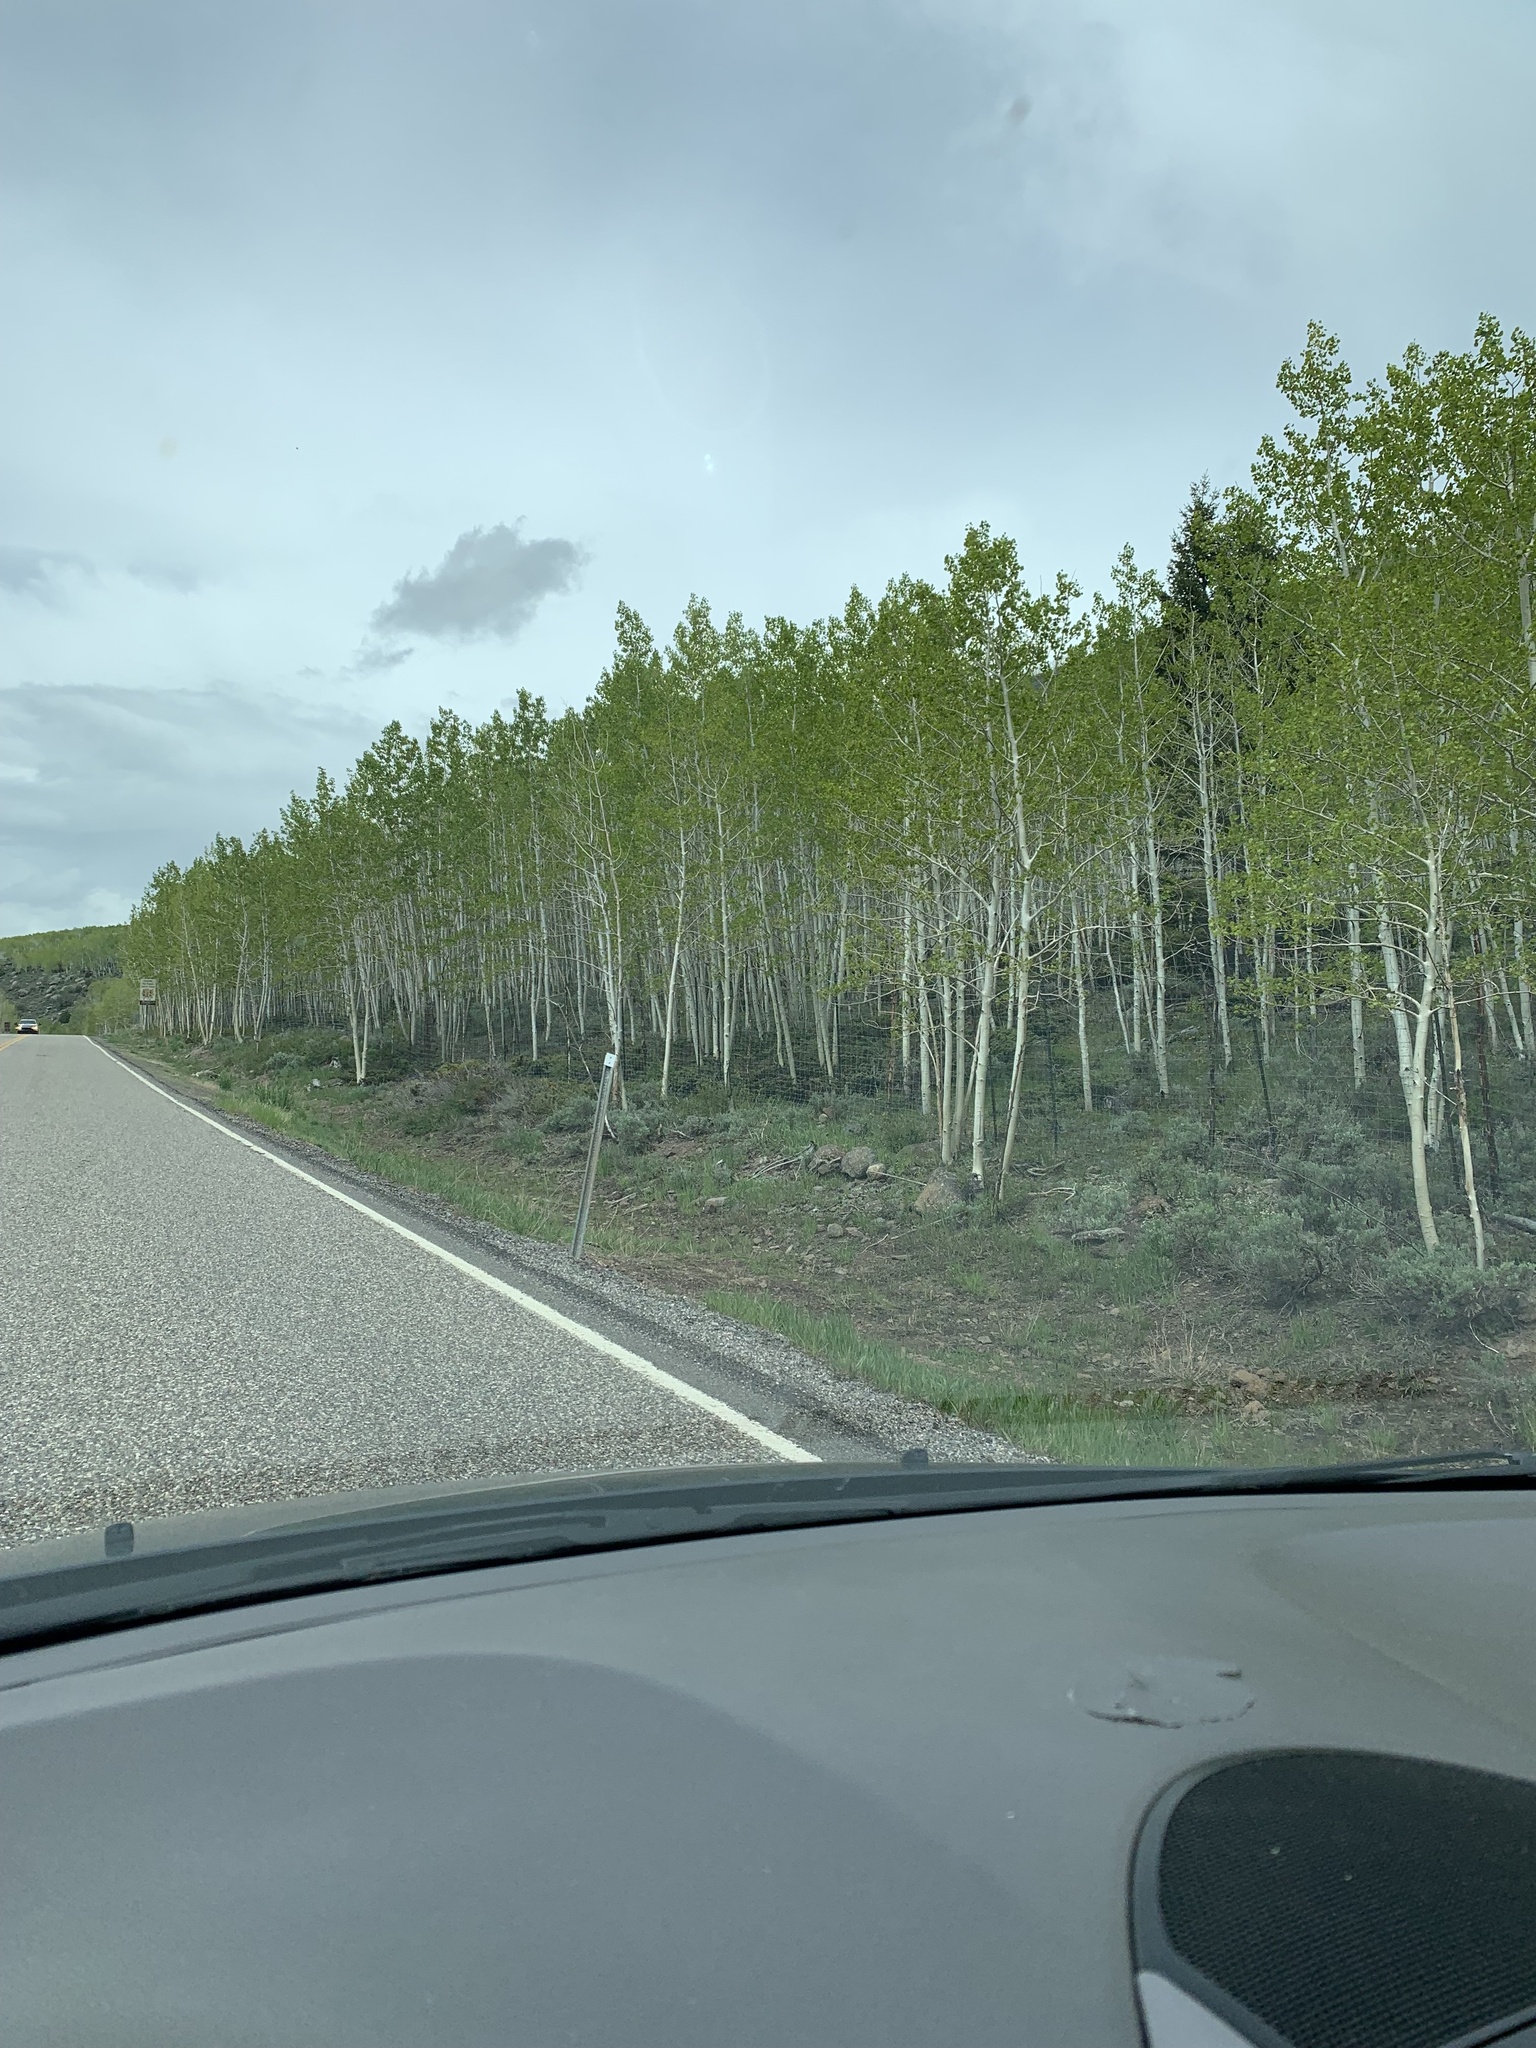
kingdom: Plantae
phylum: Tracheophyta
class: Magnoliopsida
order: Malpighiales
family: Salicaceae
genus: Populus
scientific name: Populus tremuloides
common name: Quaking aspen
